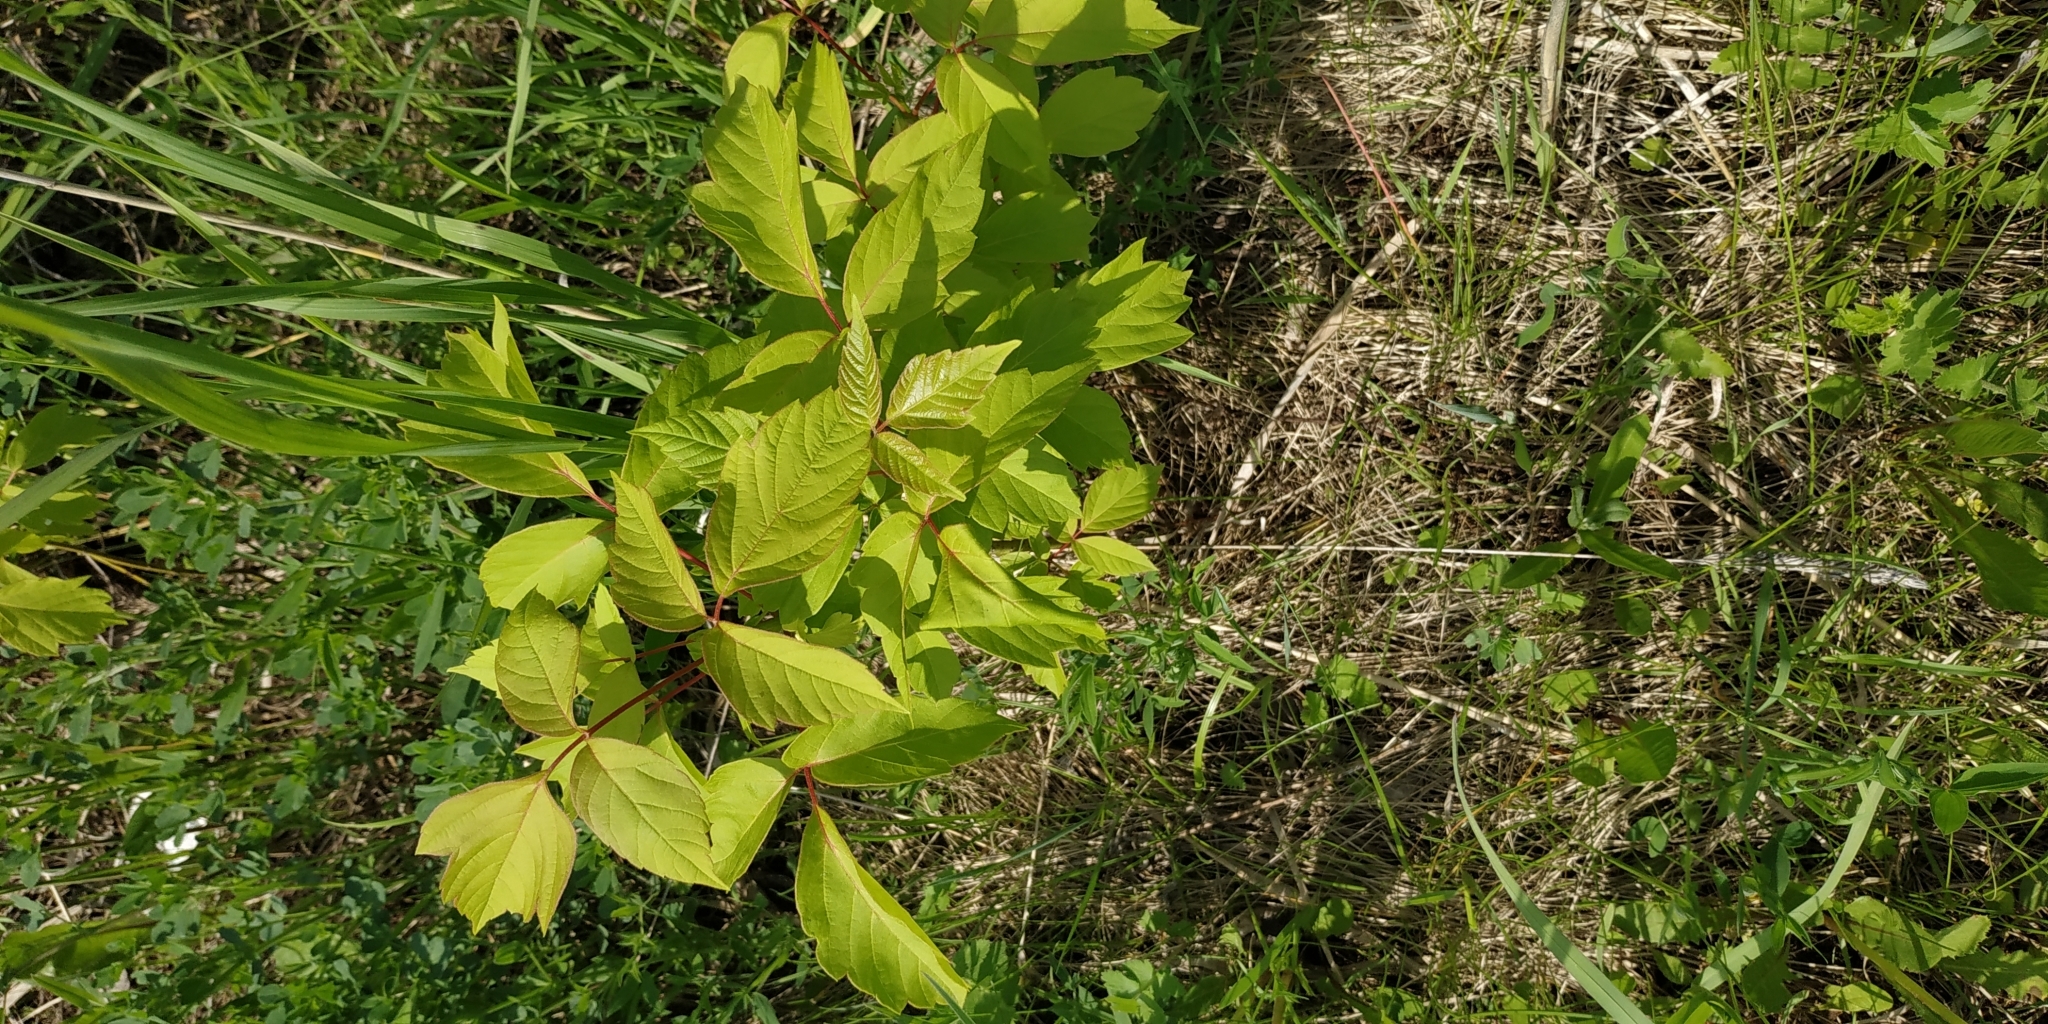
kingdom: Plantae
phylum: Tracheophyta
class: Magnoliopsida
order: Sapindales
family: Sapindaceae
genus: Acer
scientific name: Acer negundo
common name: Ashleaf maple
